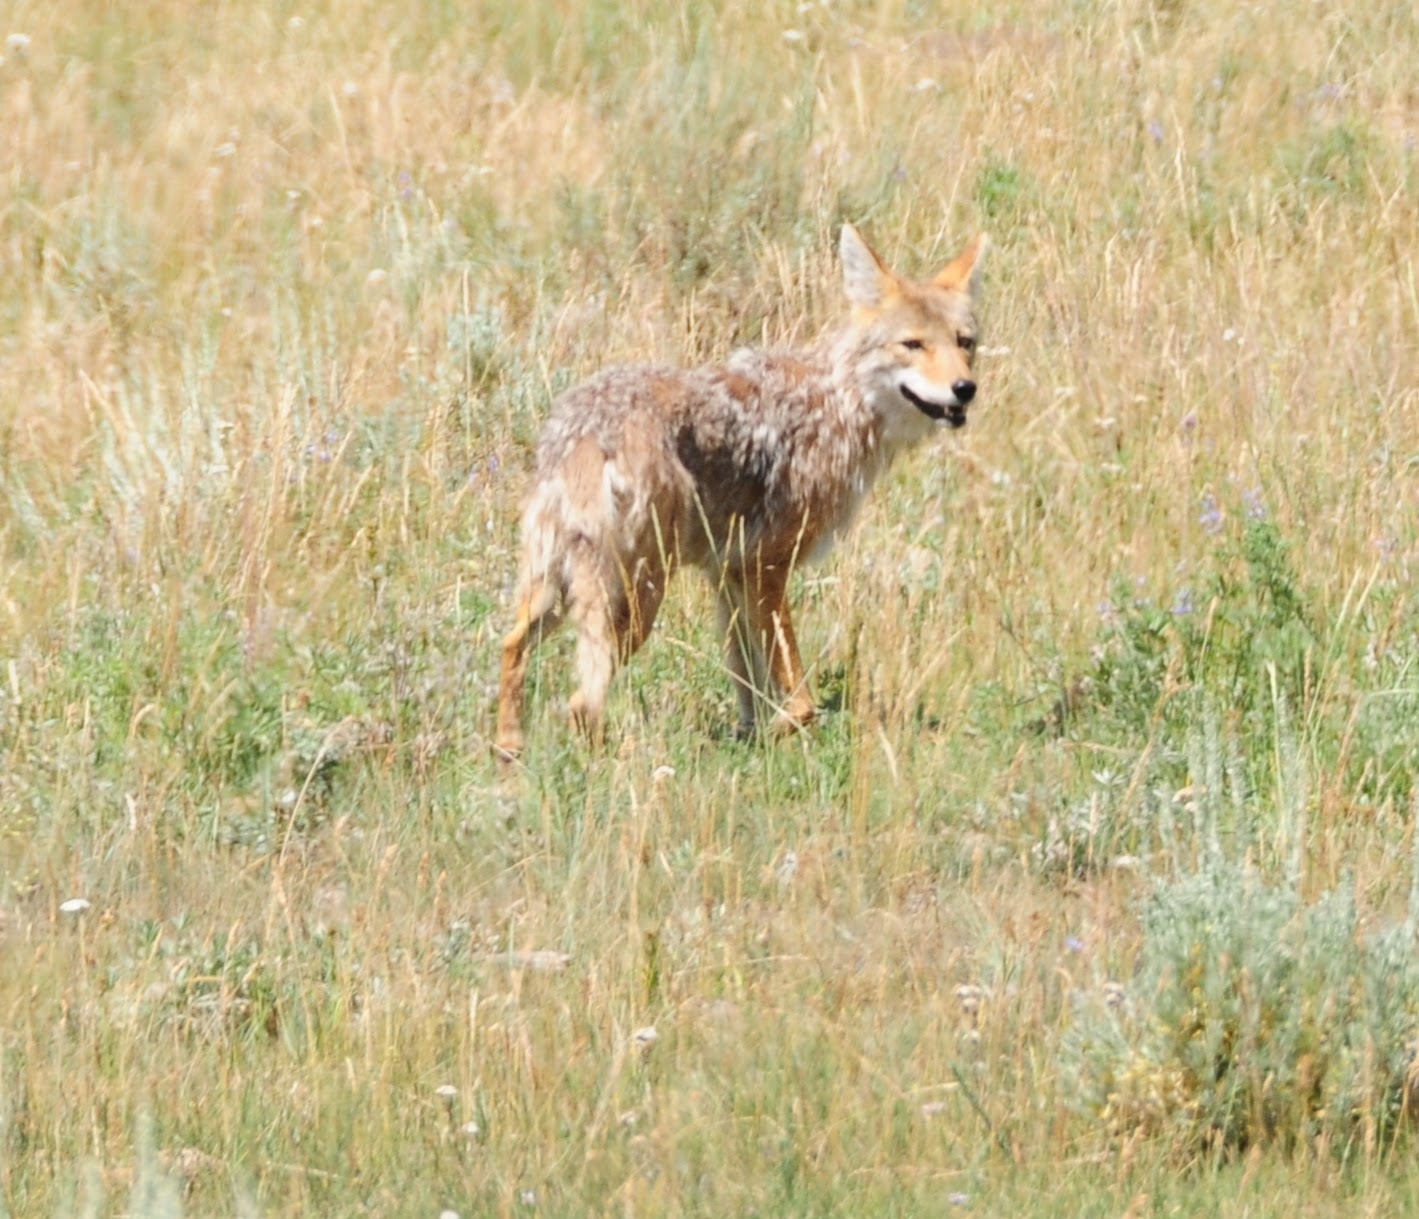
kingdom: Animalia
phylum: Chordata
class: Mammalia
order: Carnivora
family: Canidae
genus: Canis
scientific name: Canis latrans
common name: Coyote
